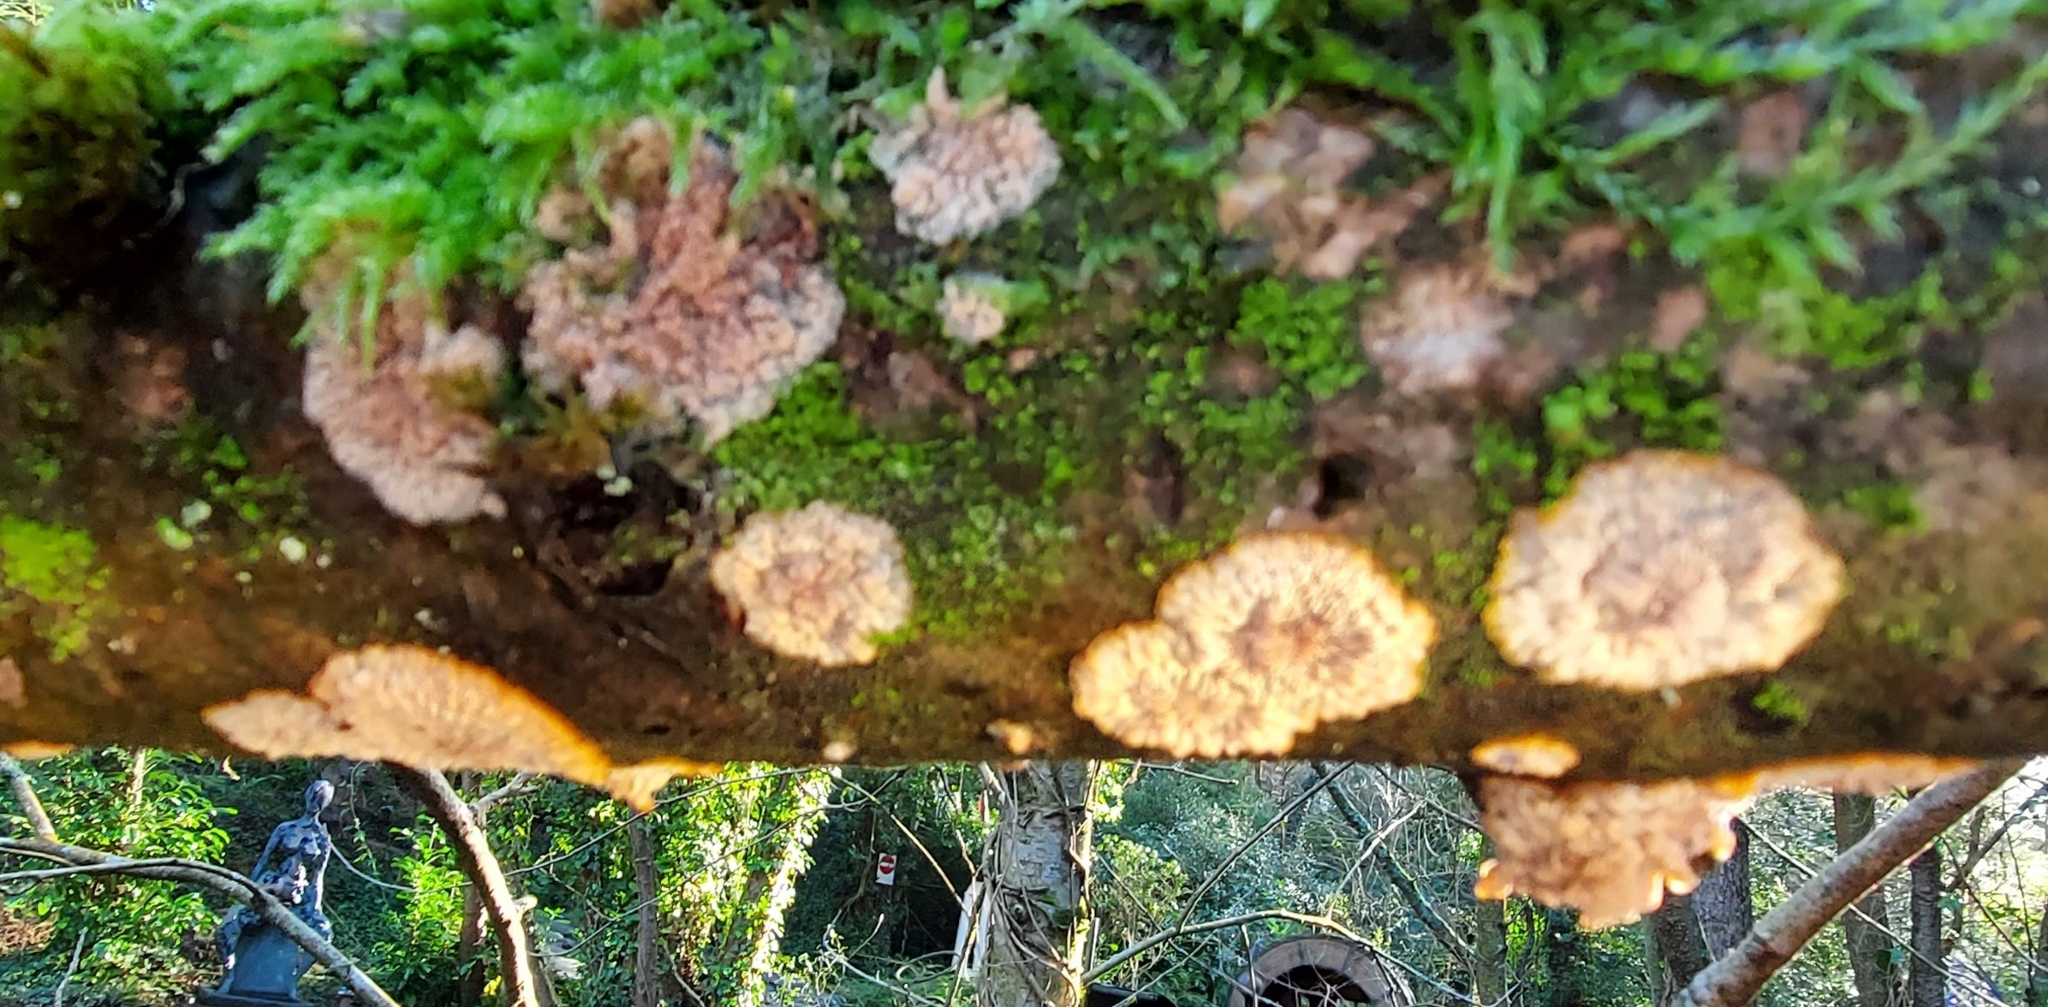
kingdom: Fungi
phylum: Basidiomycota
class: Agaricomycetes
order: Polyporales
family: Meruliaceae
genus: Phlebia
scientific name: Phlebia radiata
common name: Wrinkled crust
